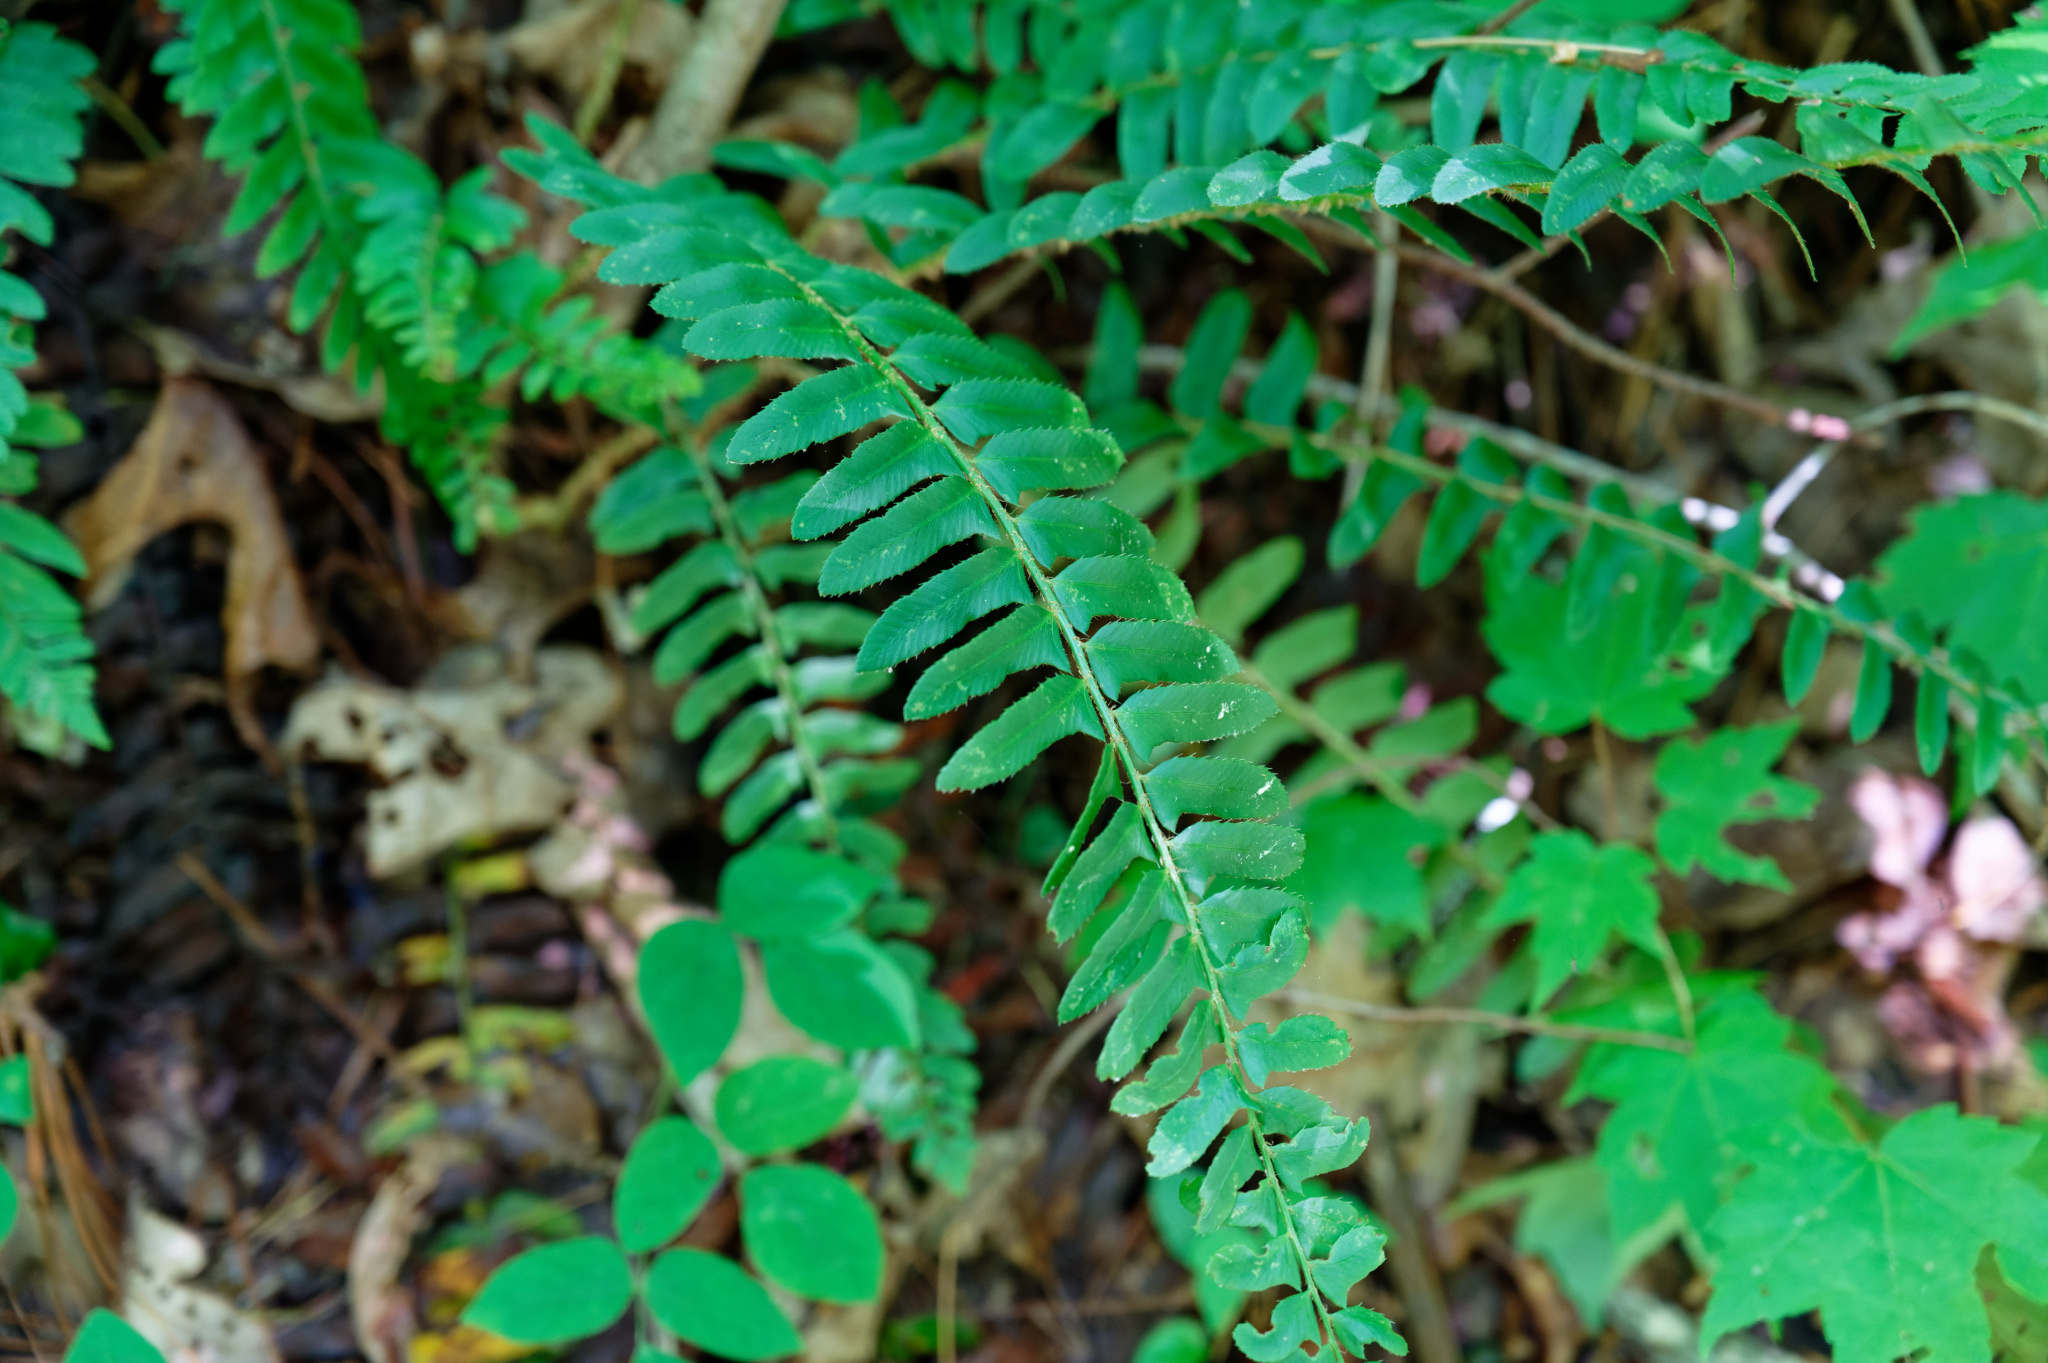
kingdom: Plantae
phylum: Tracheophyta
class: Polypodiopsida
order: Polypodiales
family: Dryopteridaceae
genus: Polystichum
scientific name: Polystichum acrostichoides
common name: Christmas fern
